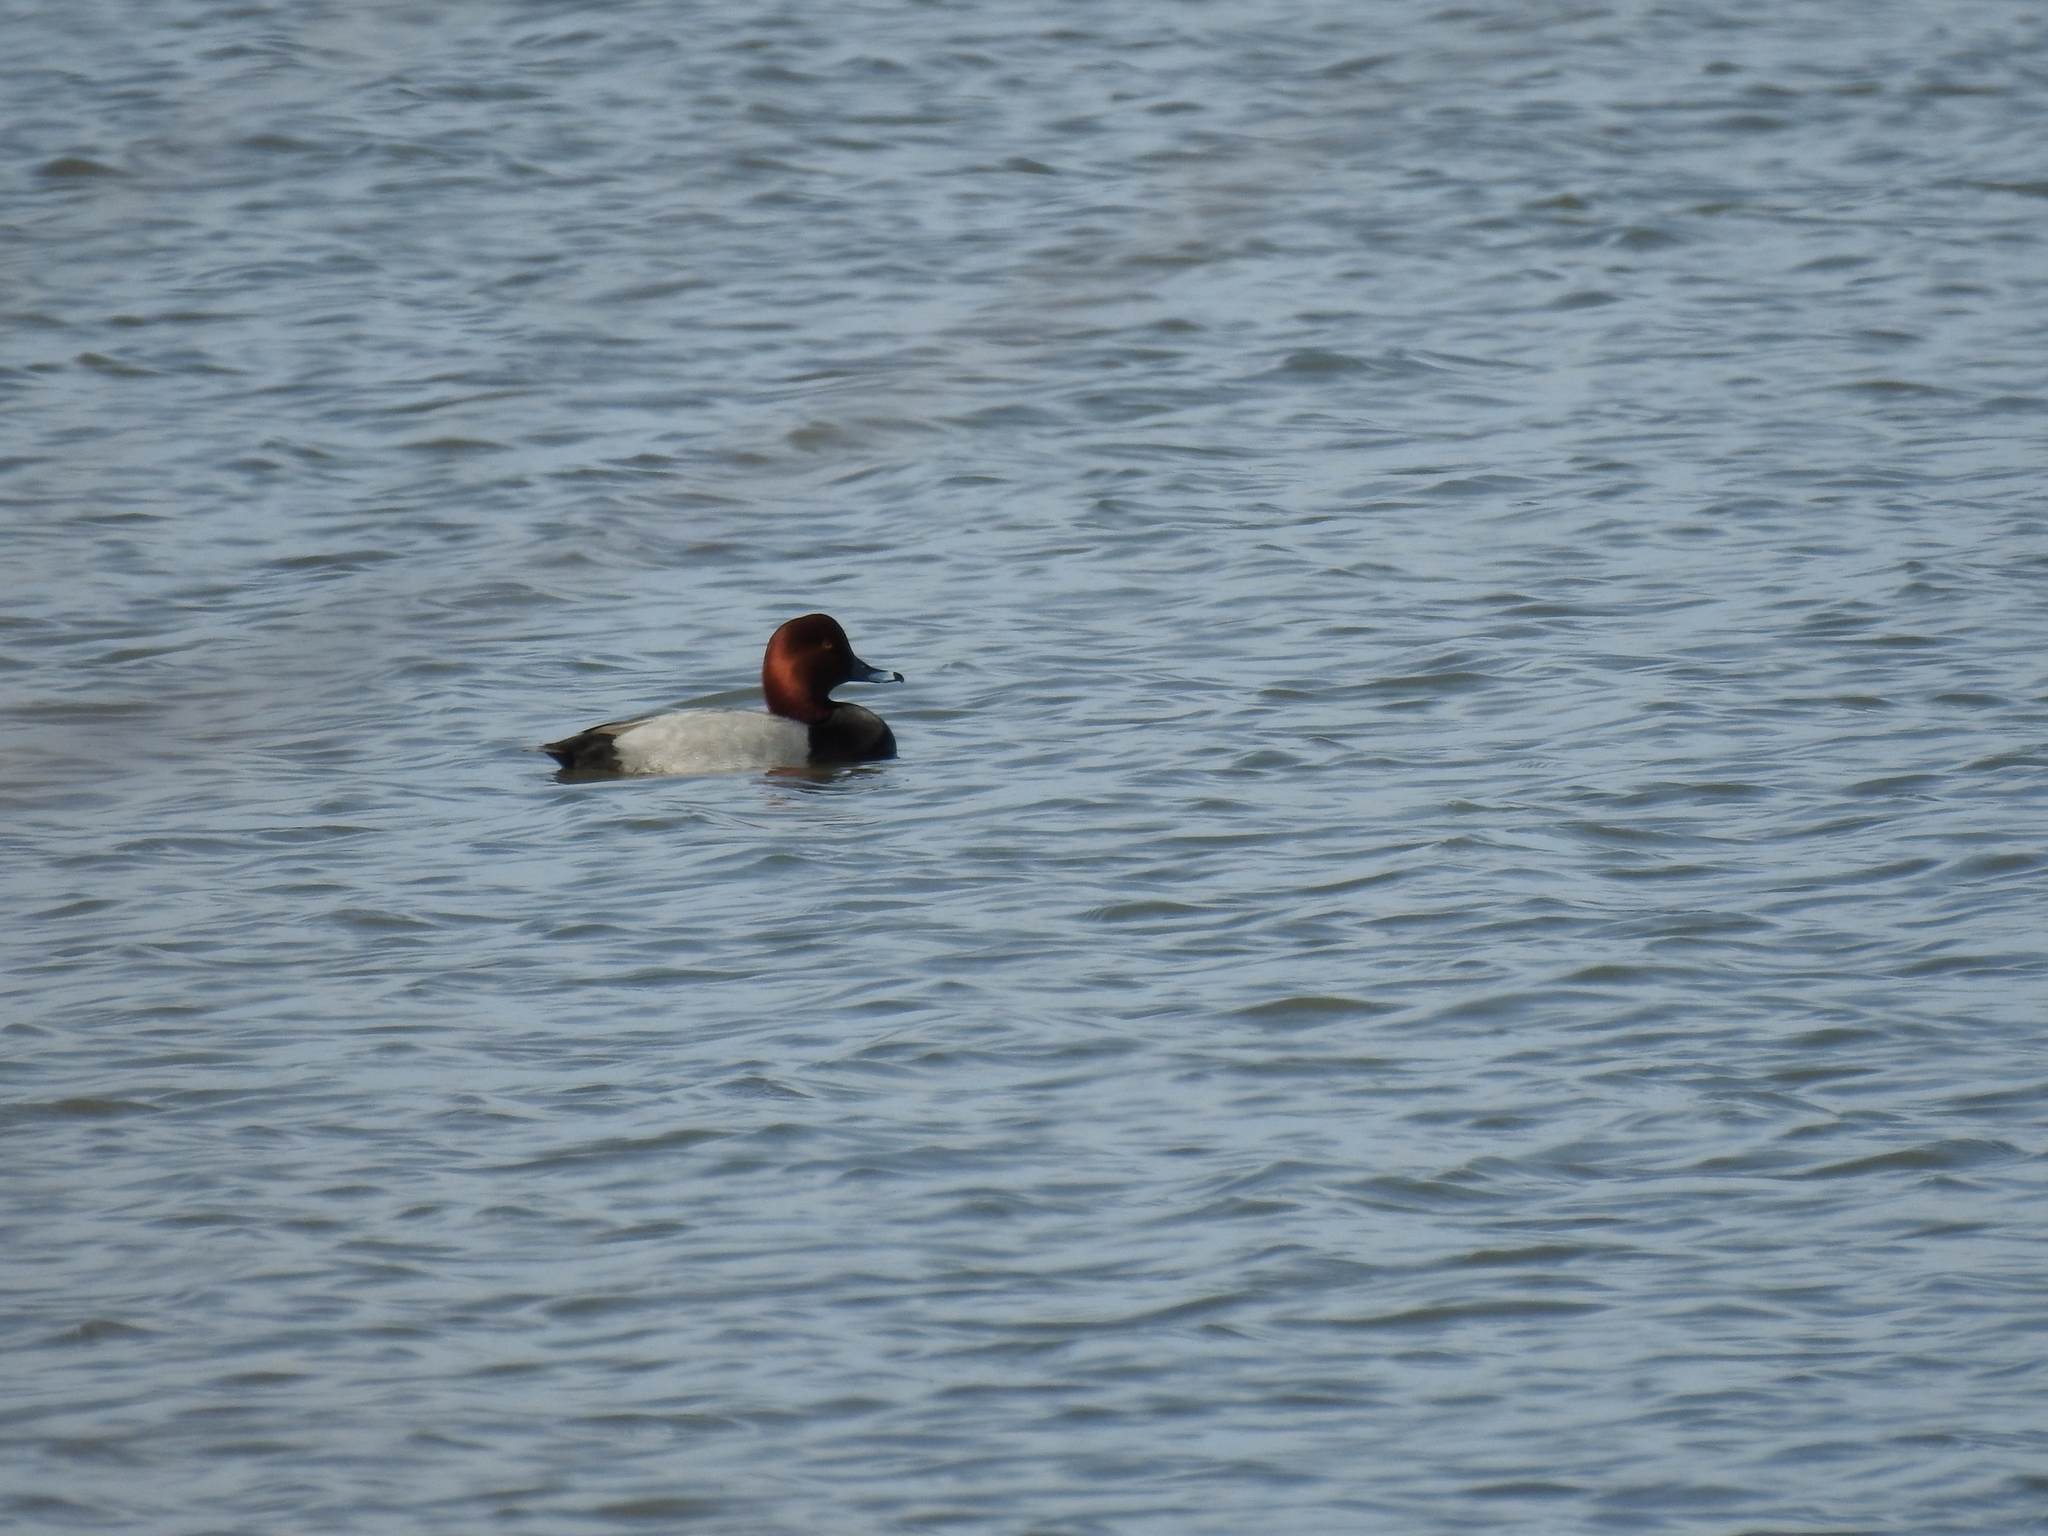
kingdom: Animalia
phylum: Chordata
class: Aves
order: Anseriformes
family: Anatidae
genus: Aythya
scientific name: Aythya americana
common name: Redhead
